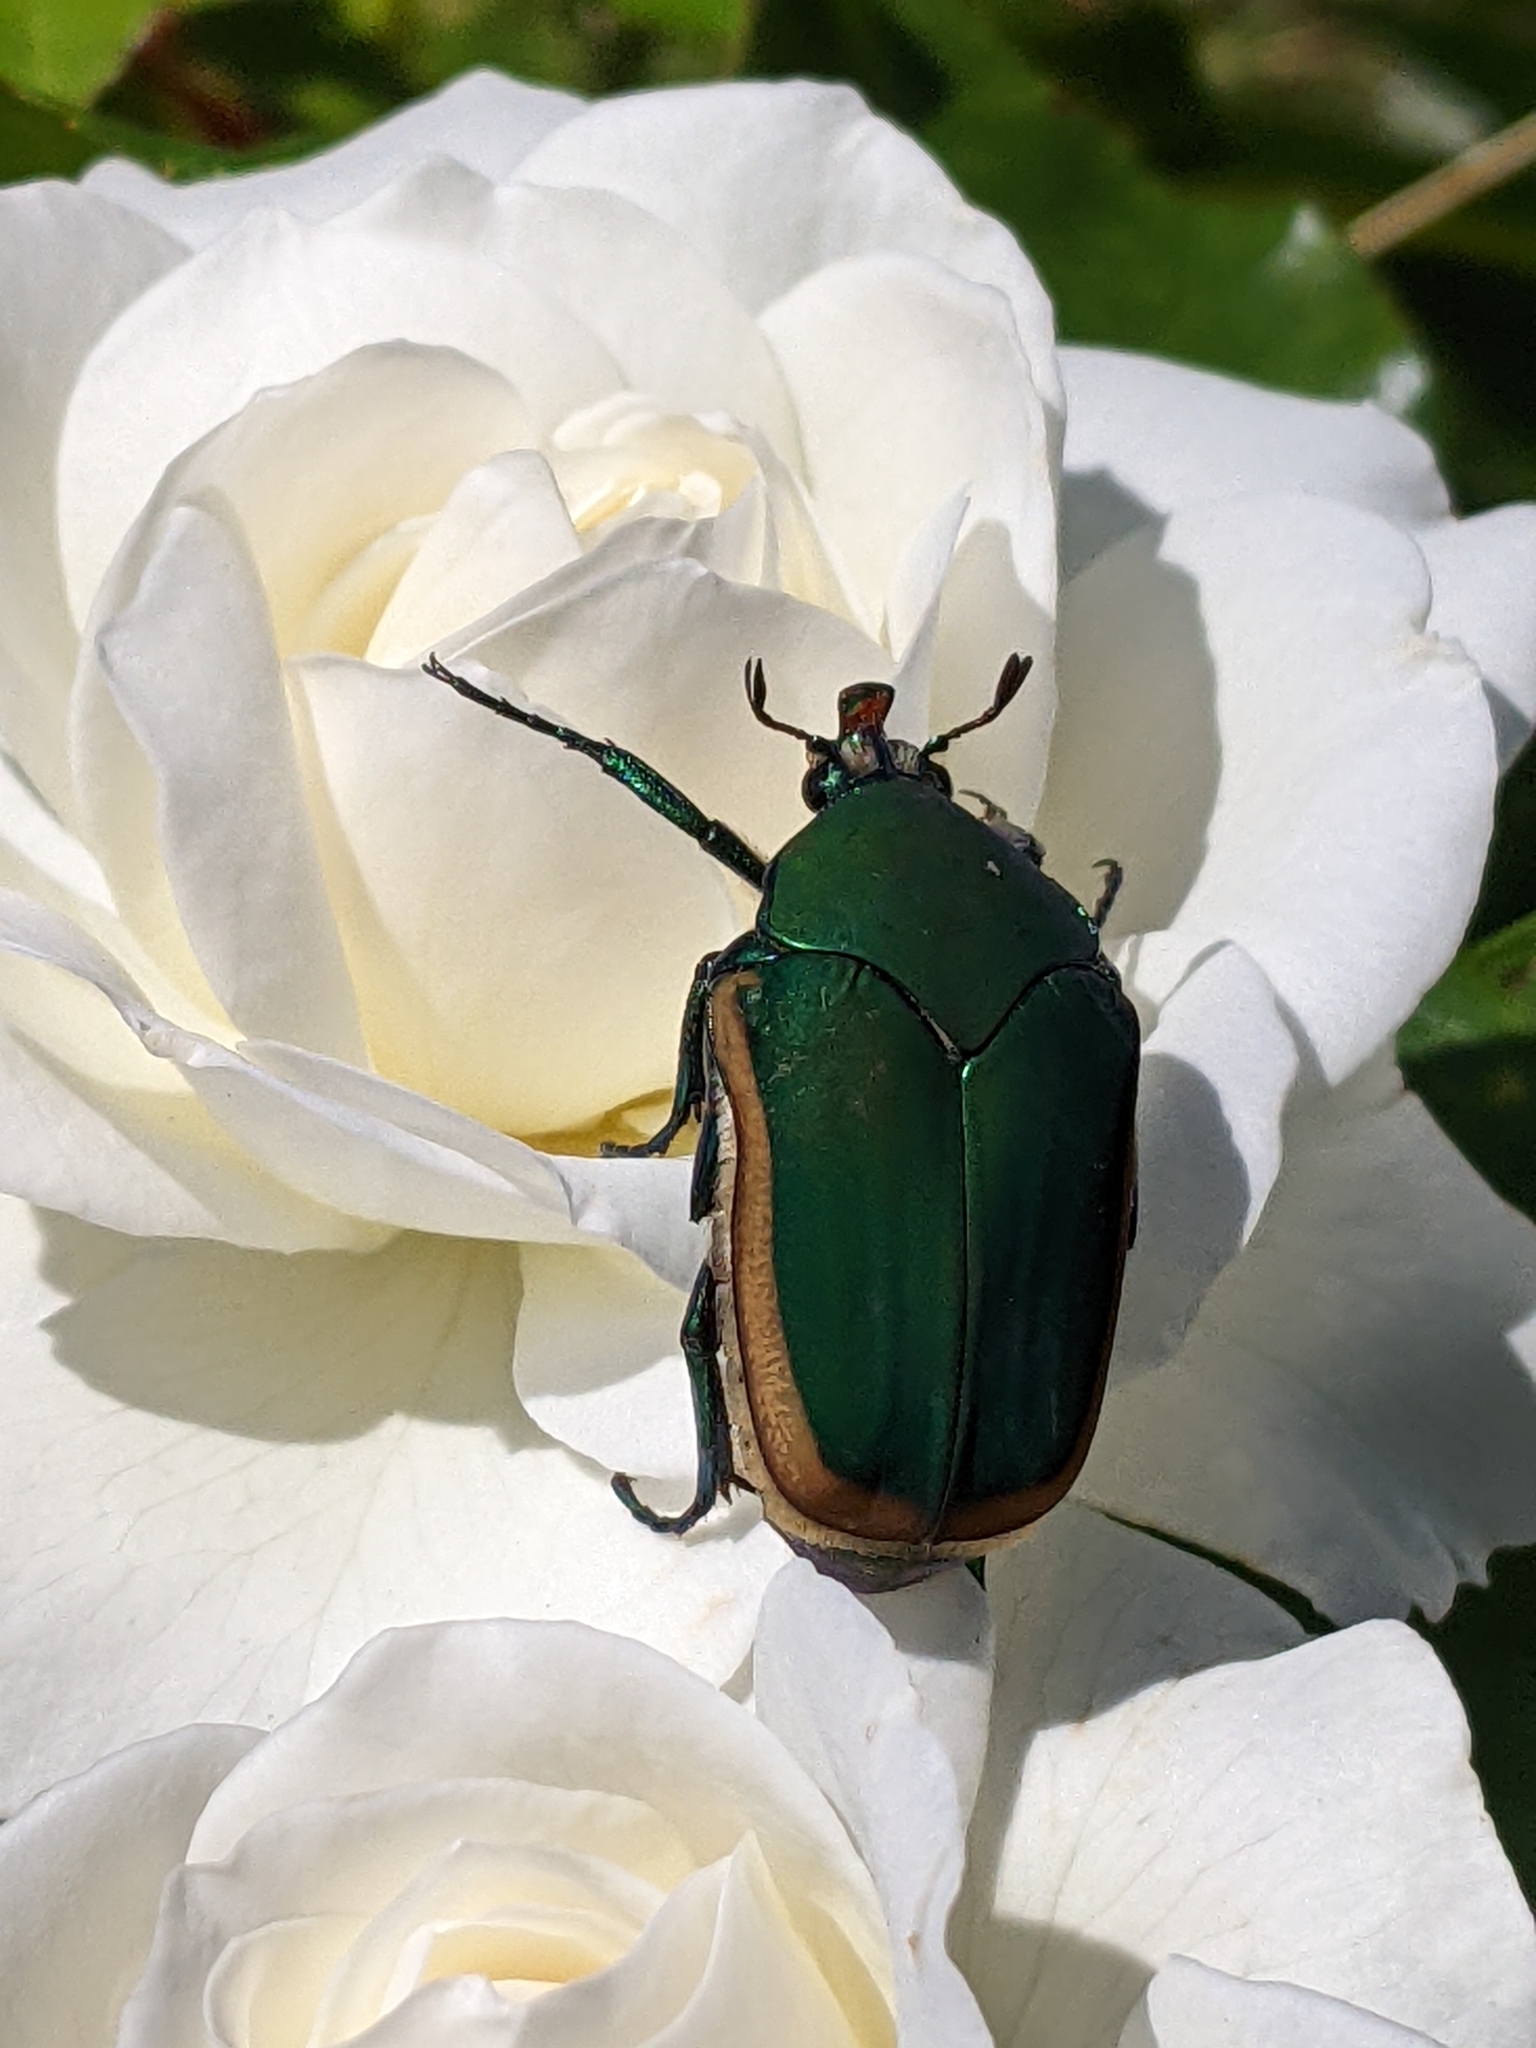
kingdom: Animalia
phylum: Arthropoda
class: Insecta
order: Coleoptera
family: Scarabaeidae
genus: Cotinis
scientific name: Cotinis mutabilis
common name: Figeater beetle
